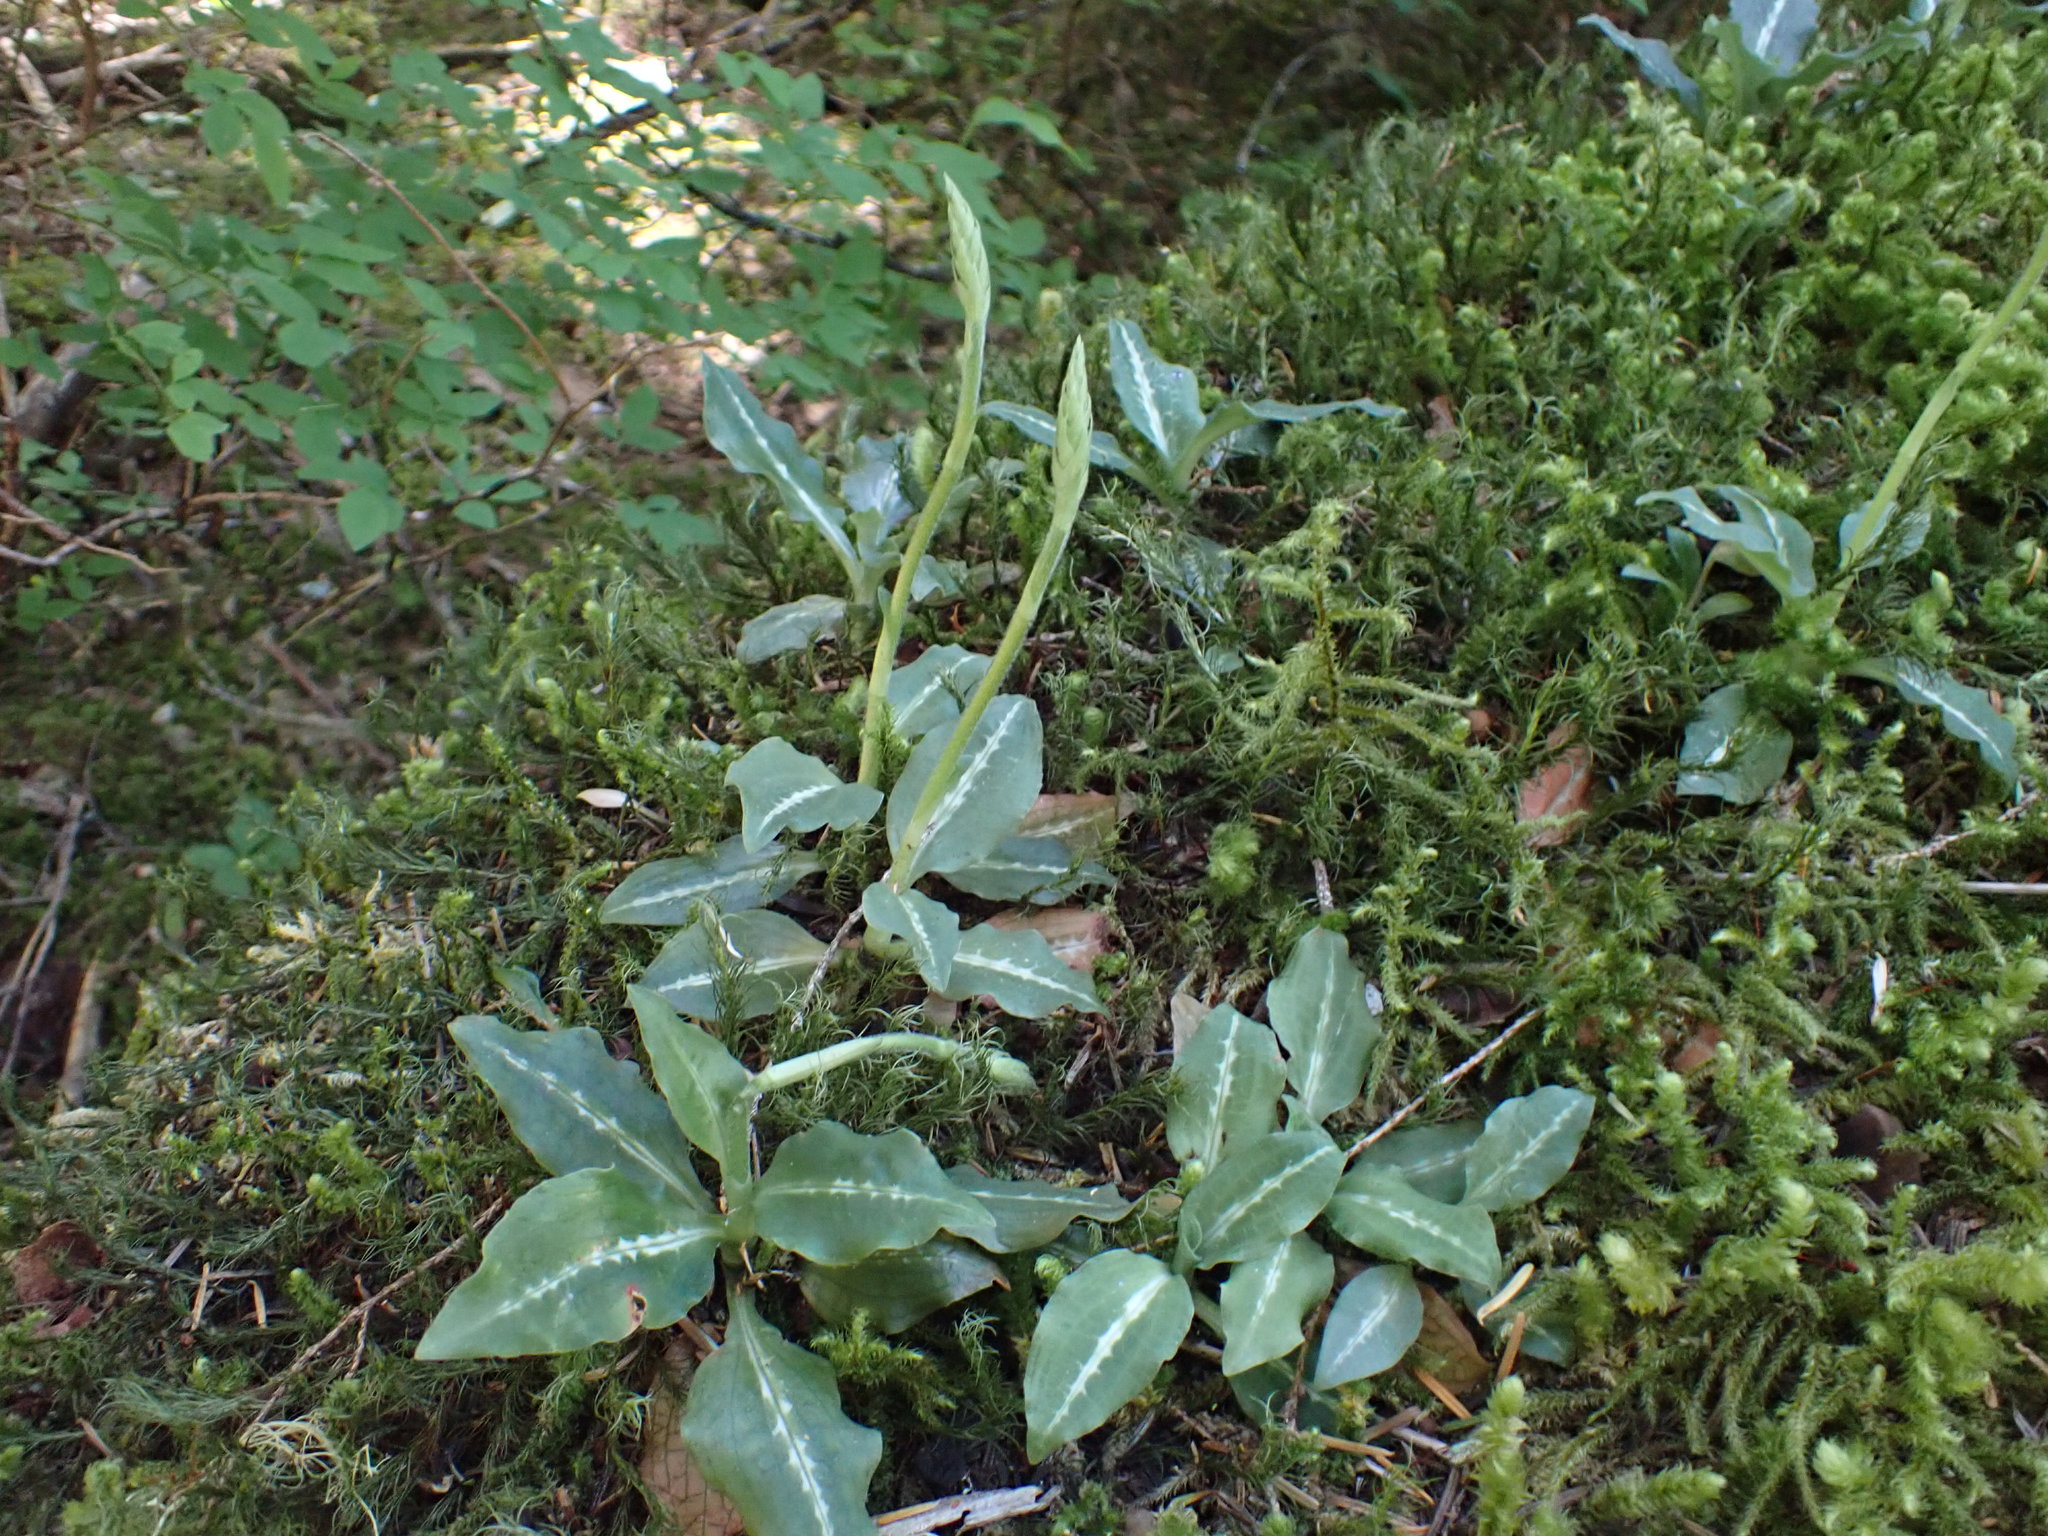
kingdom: Plantae
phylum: Tracheophyta
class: Liliopsida
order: Asparagales
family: Orchidaceae
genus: Goodyera
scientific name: Goodyera oblongifolia
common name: Giant rattlesnake-plantain
